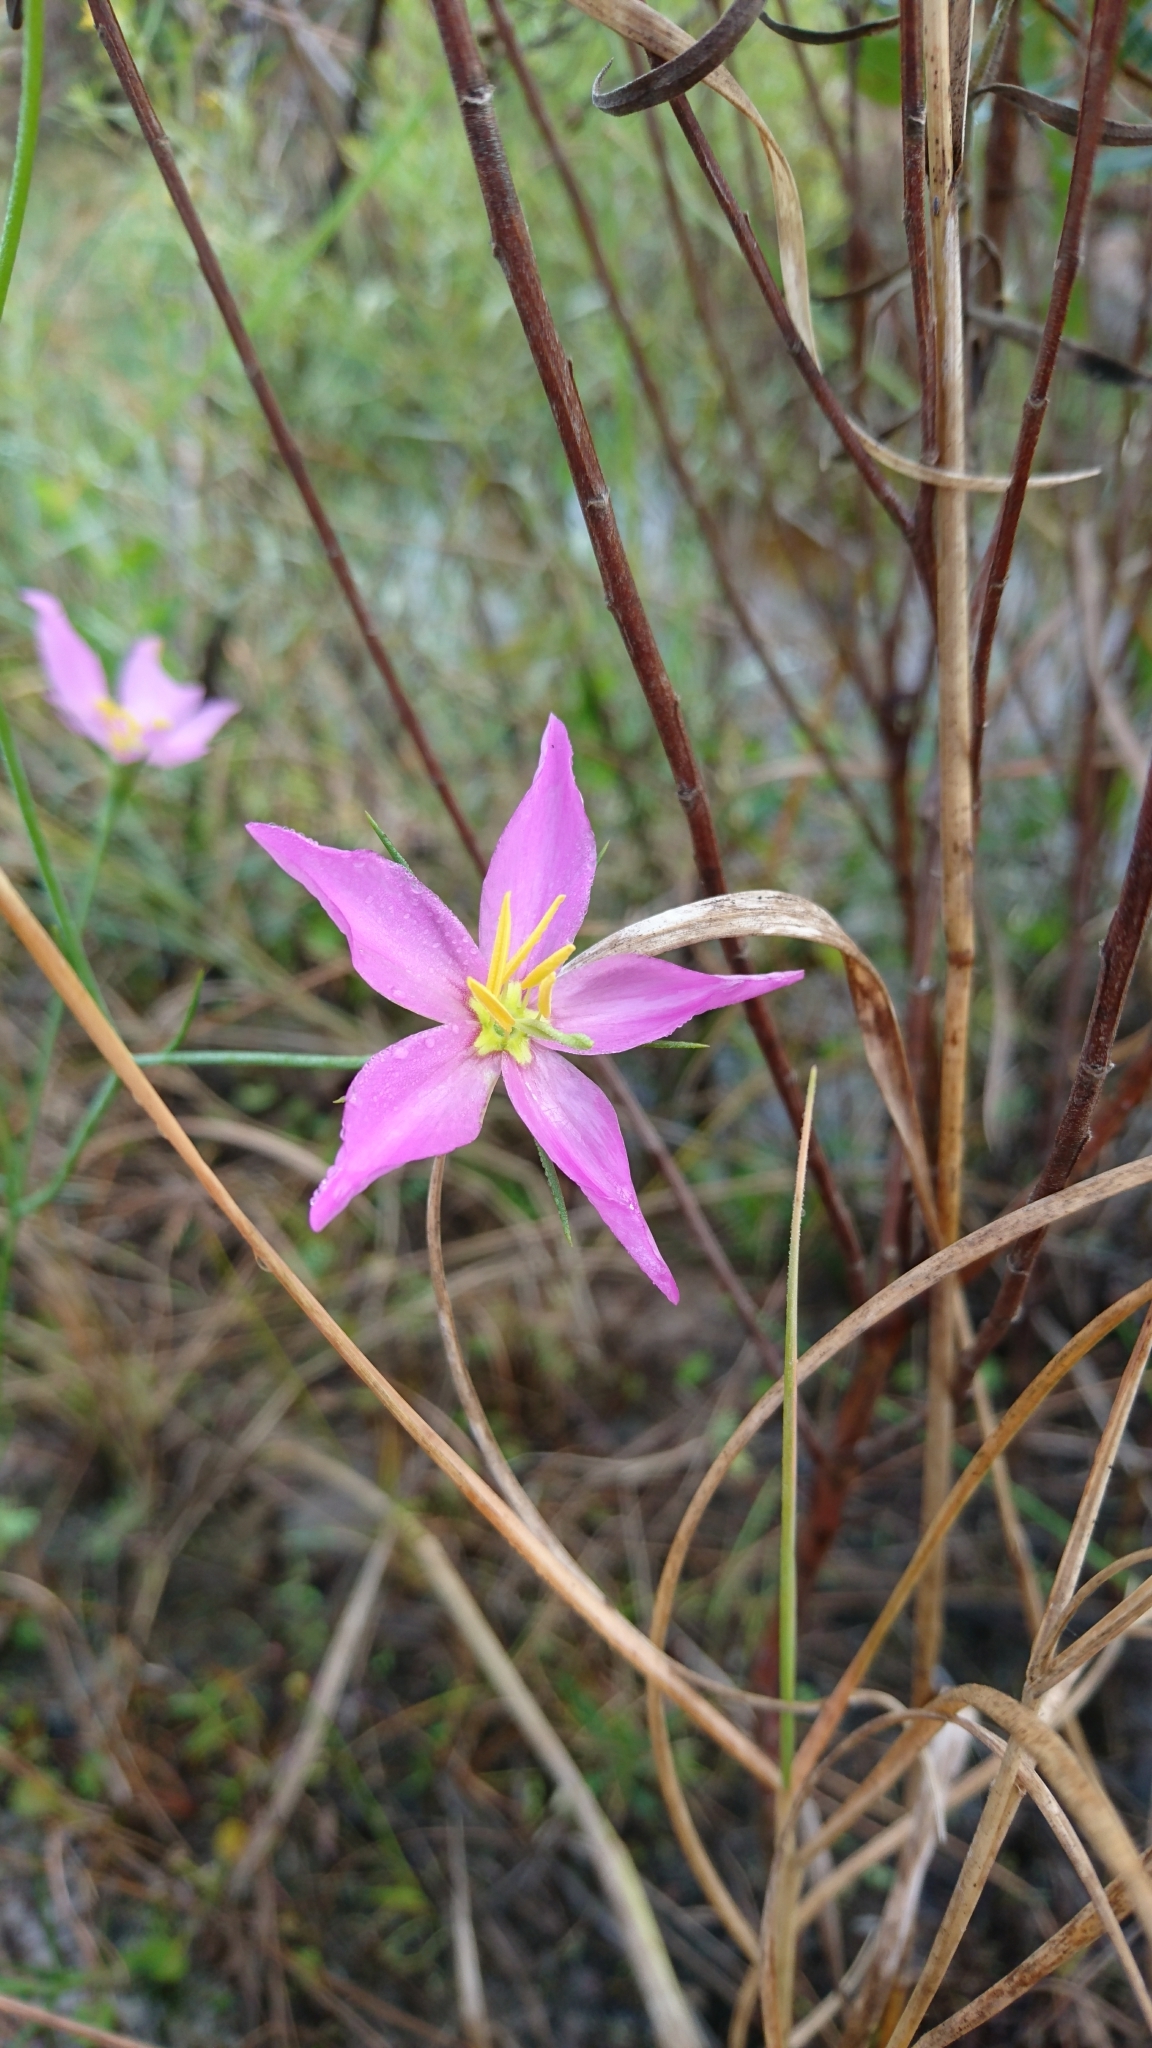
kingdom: Plantae
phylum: Tracheophyta
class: Magnoliopsida
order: Gentianales
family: Gentianaceae
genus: Sabatia
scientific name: Sabatia grandiflora
